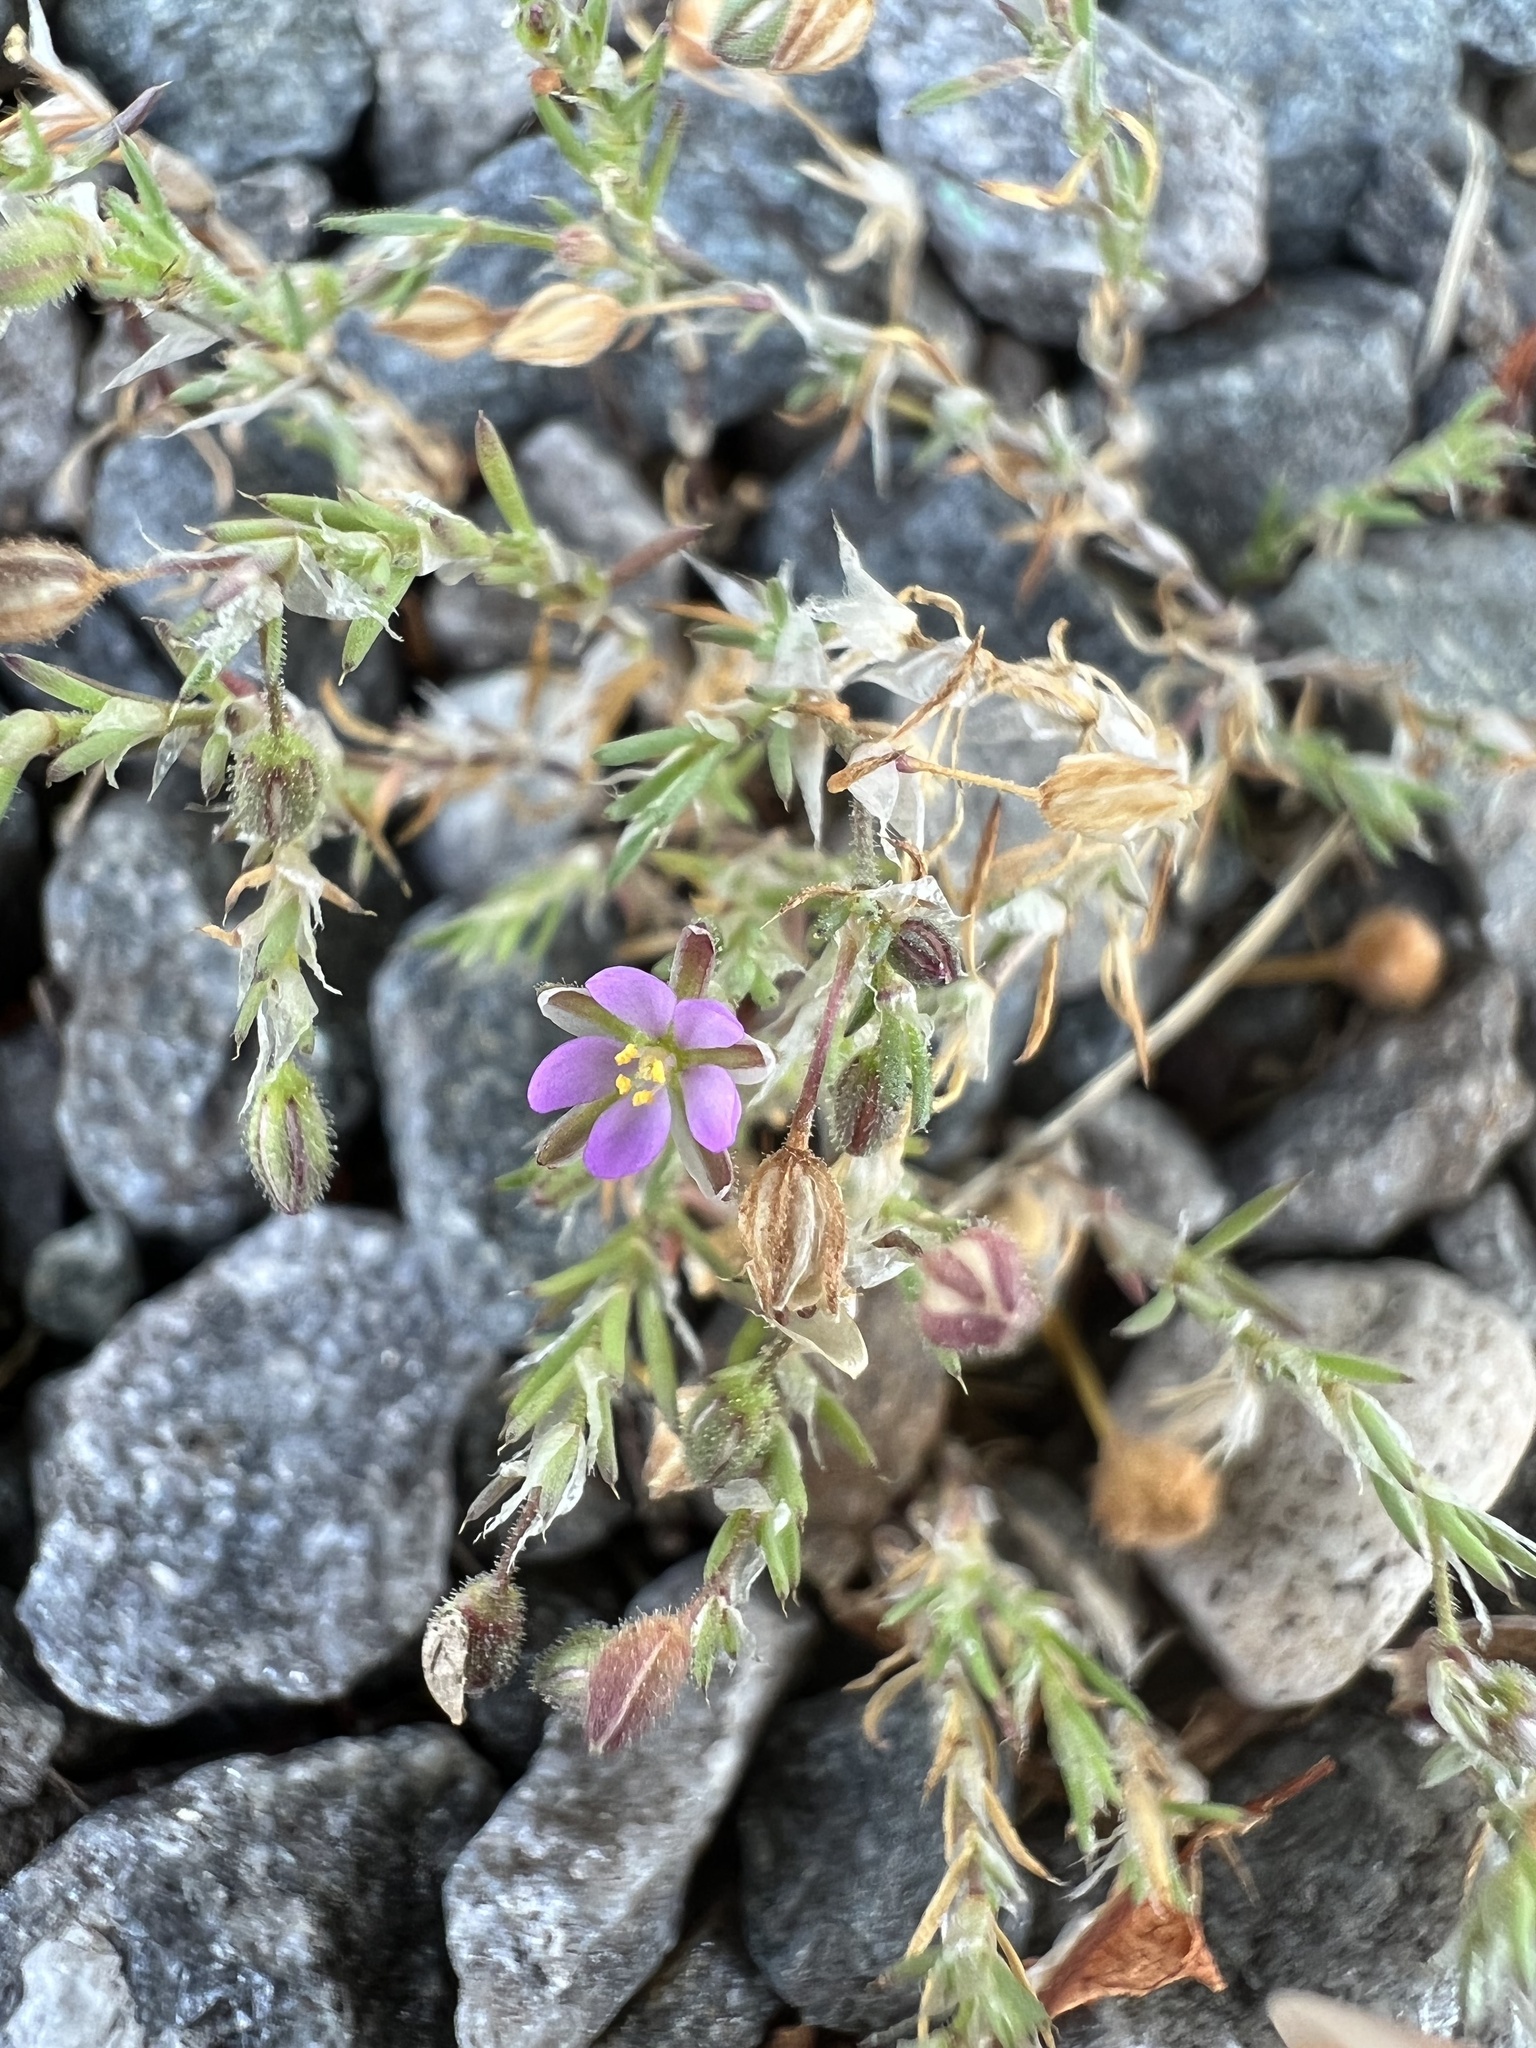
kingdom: Plantae
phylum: Tracheophyta
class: Magnoliopsida
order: Caryophyllales
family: Caryophyllaceae
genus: Spergularia
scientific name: Spergularia rubra
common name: Red sand-spurrey
